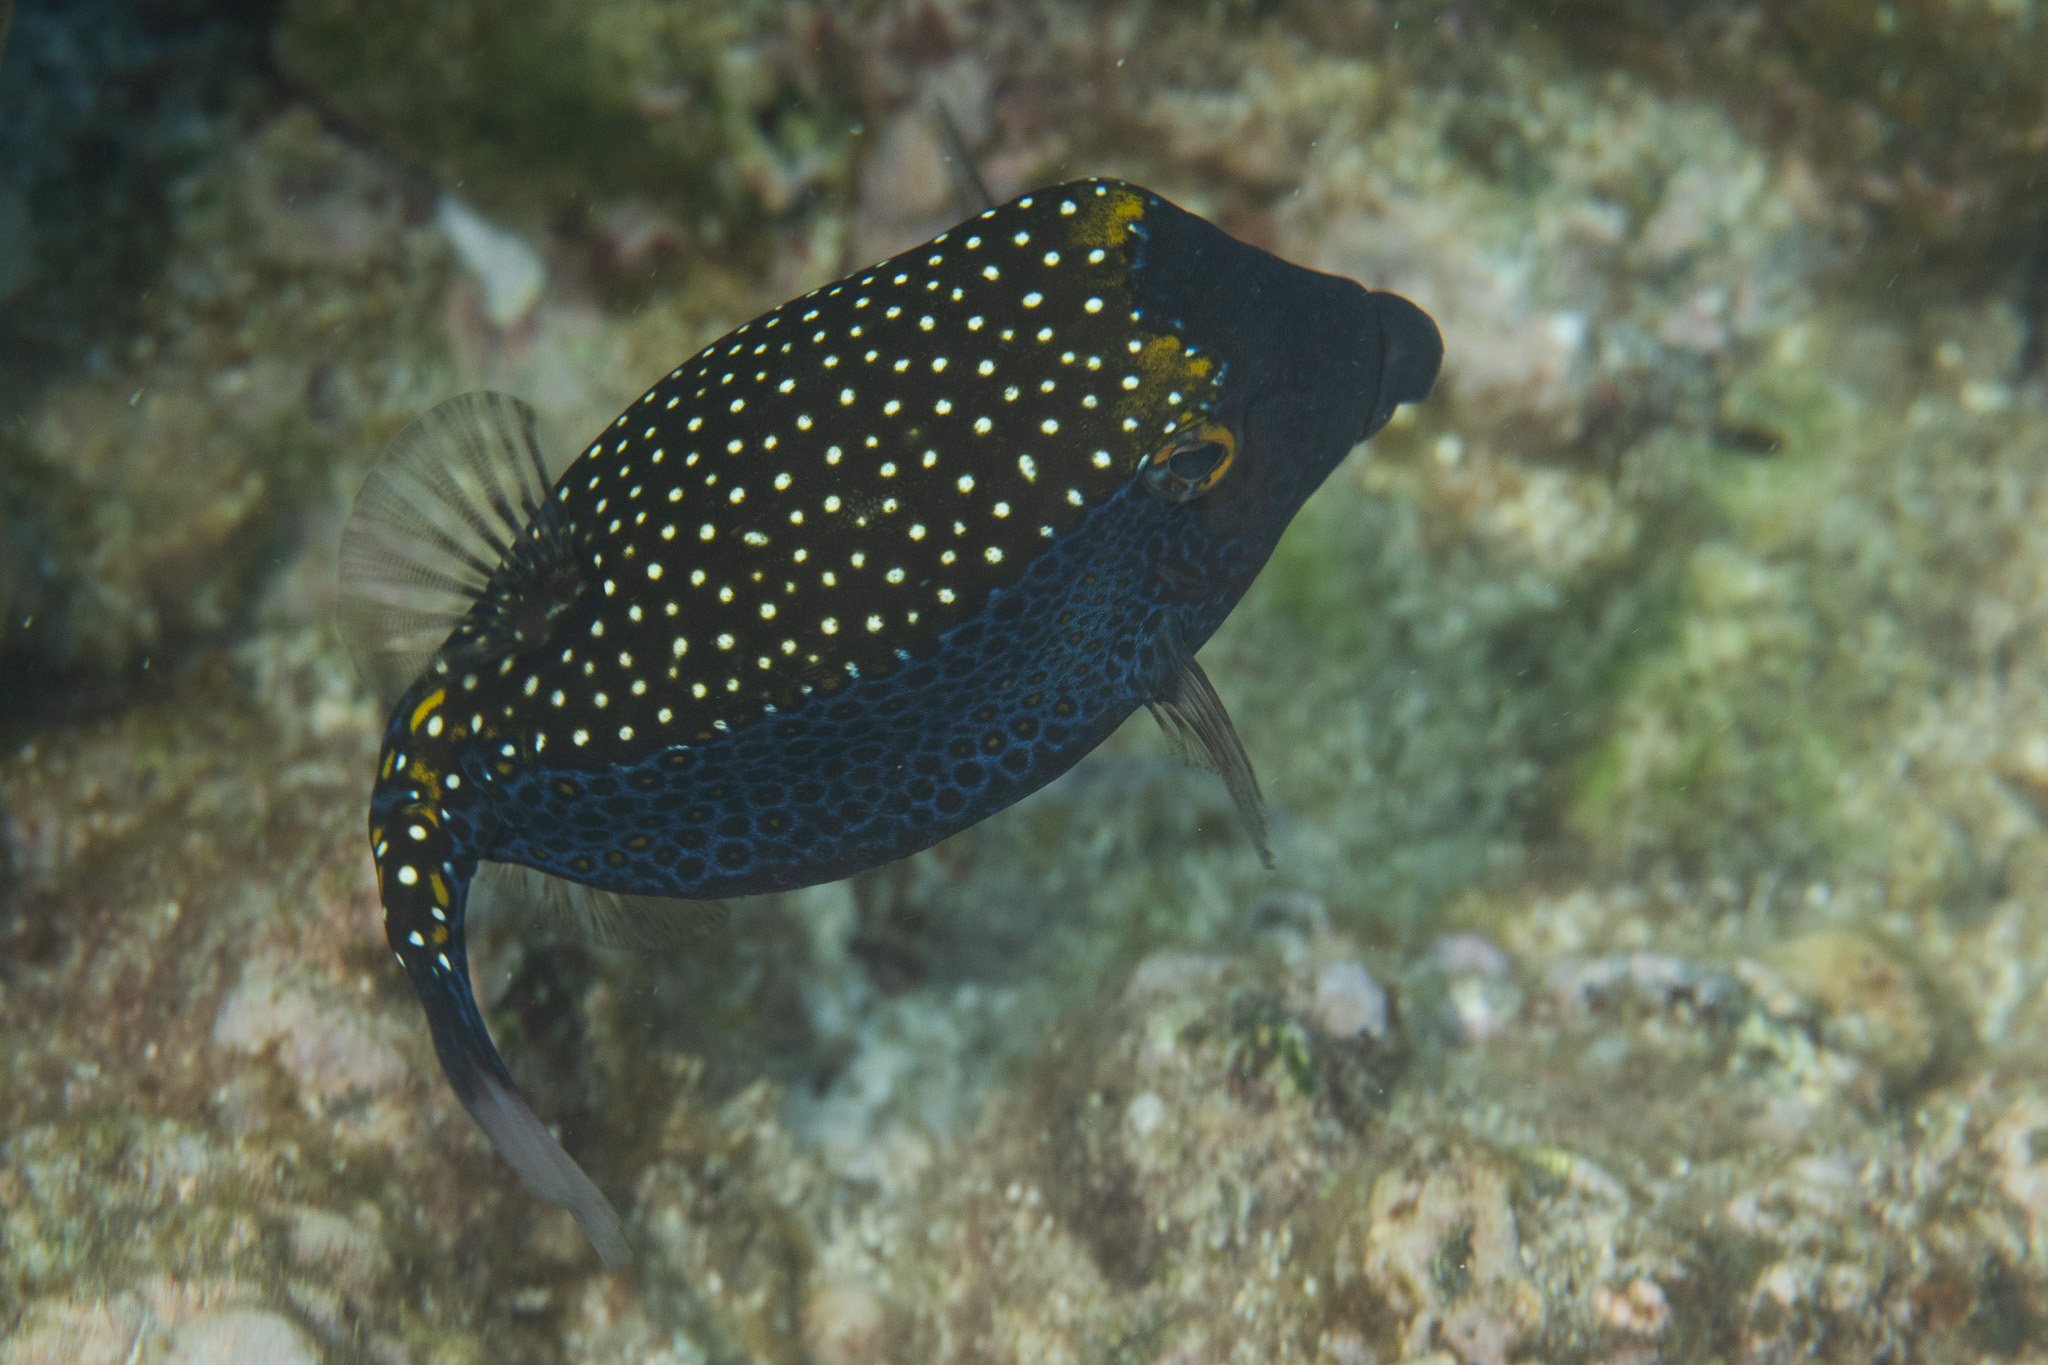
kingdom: Animalia
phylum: Chordata
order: Tetraodontiformes
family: Ostraciidae
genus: Ostracion
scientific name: Ostracion meleagris
